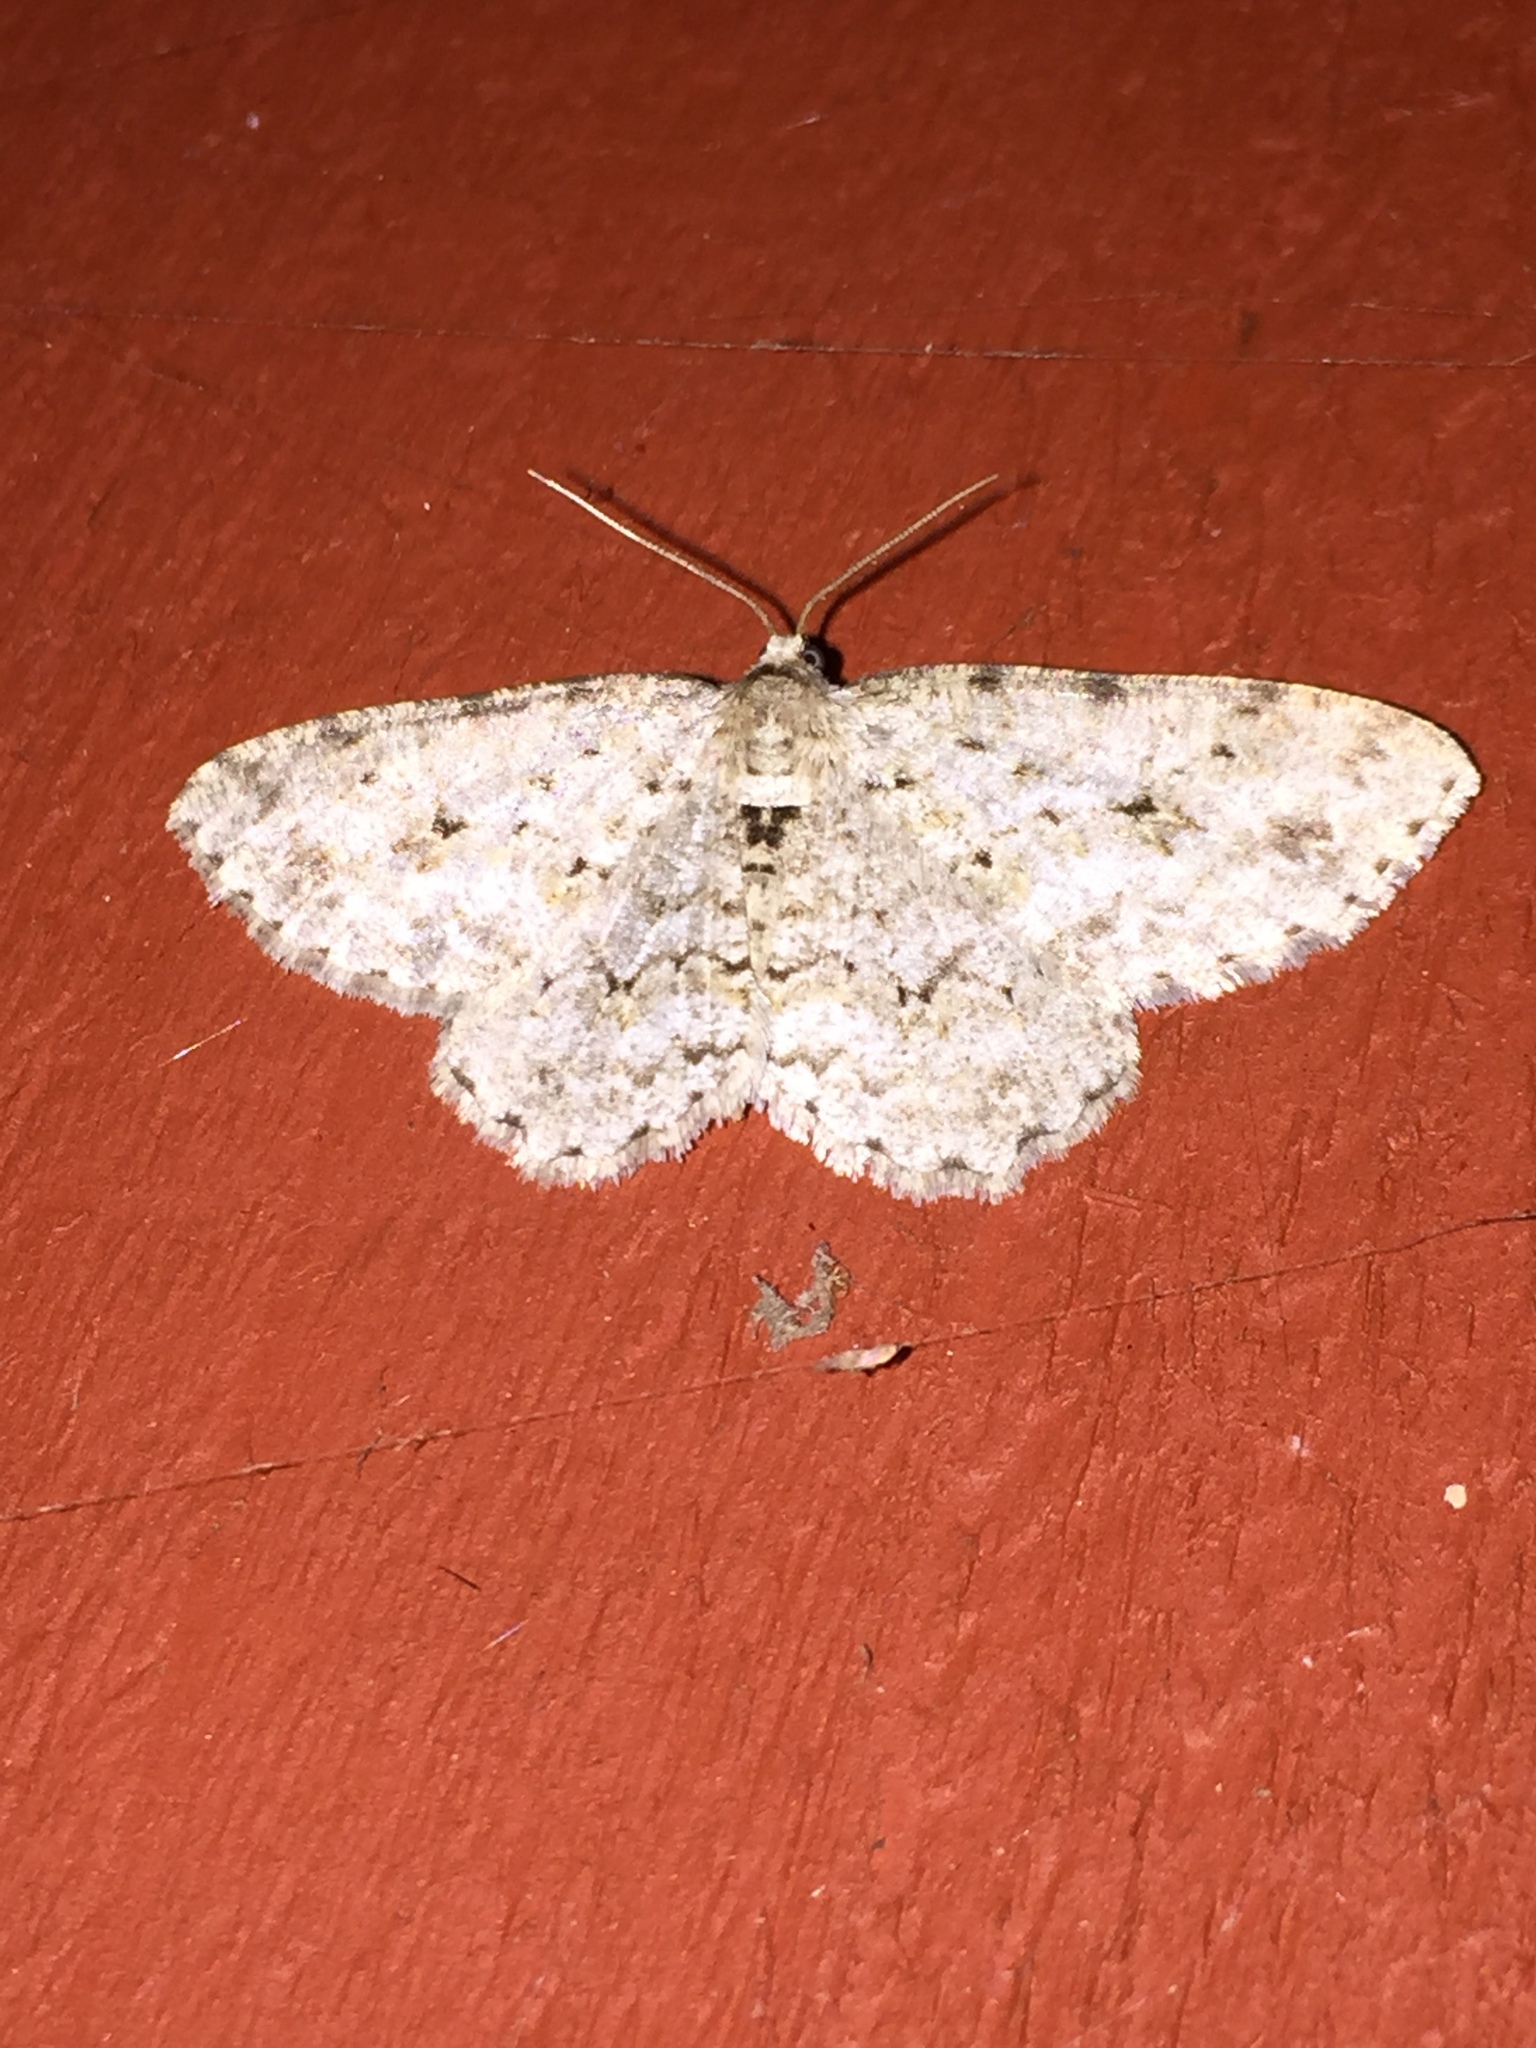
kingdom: Animalia
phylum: Arthropoda
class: Insecta
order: Lepidoptera
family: Geometridae
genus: Ectropis
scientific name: Ectropis crepuscularia
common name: Engrailed
